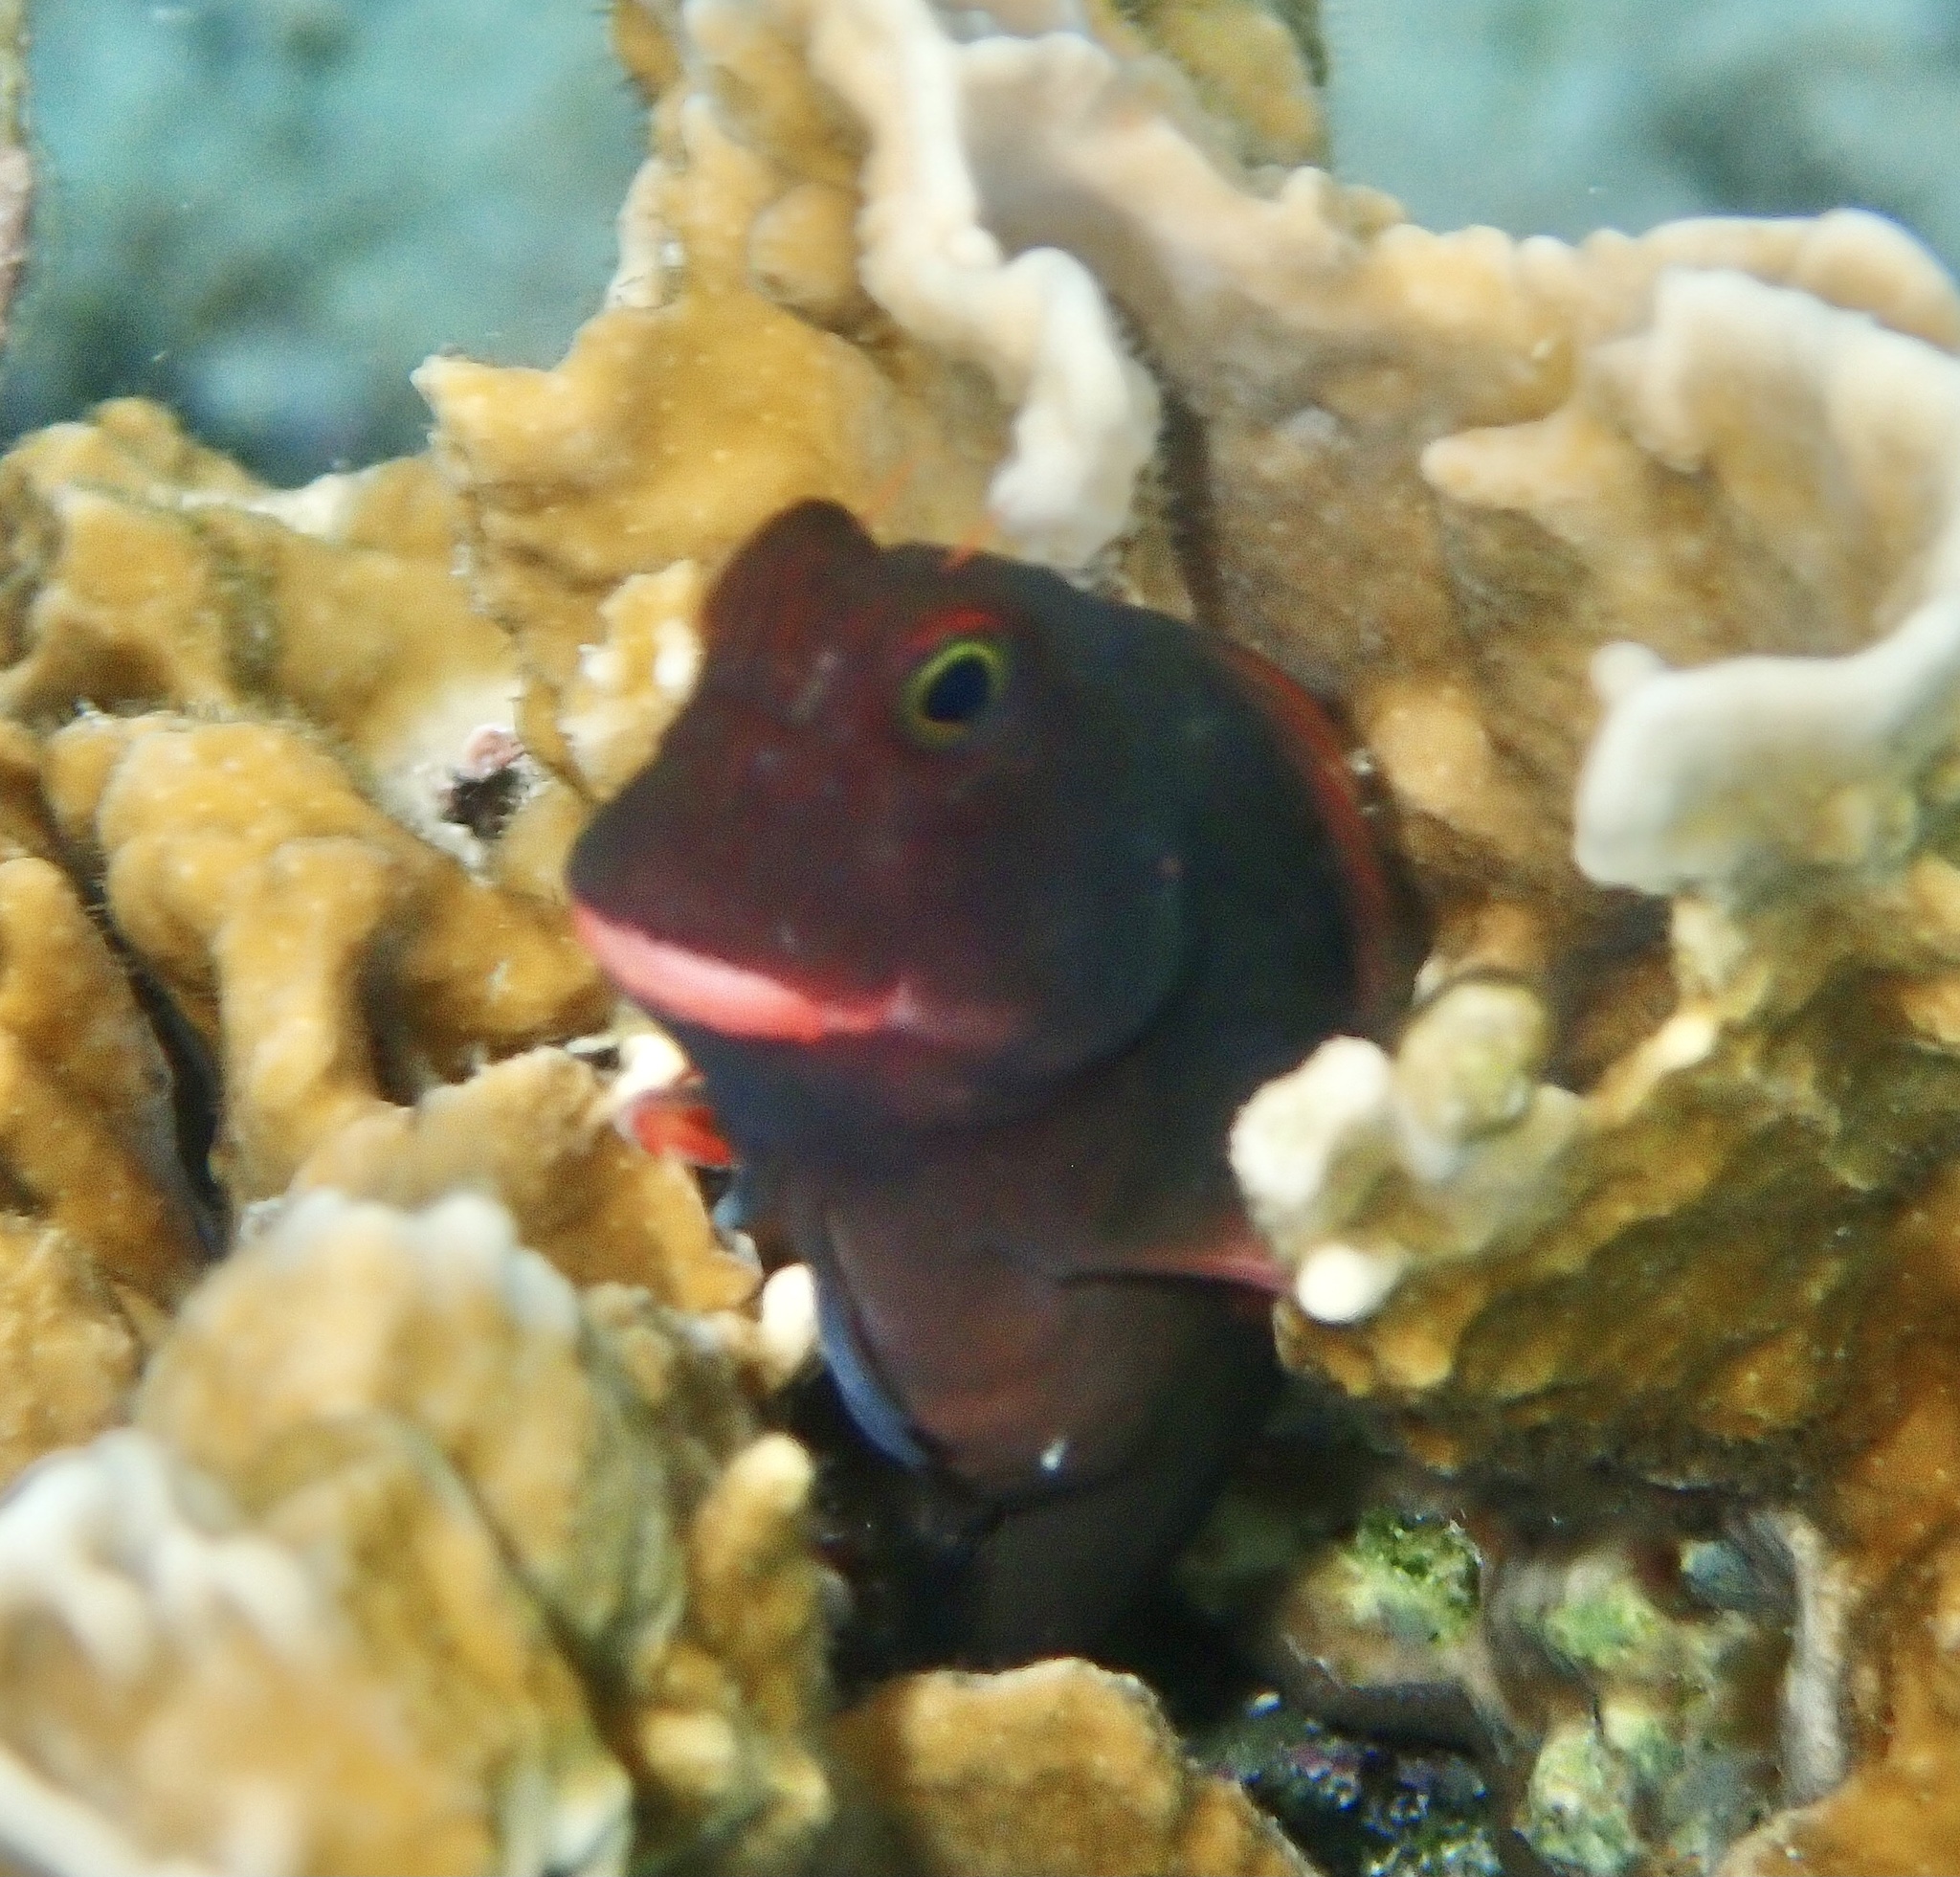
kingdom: Animalia
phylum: Chordata
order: Perciformes
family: Blenniidae
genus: Ophioblennius
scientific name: Ophioblennius macclurei
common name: Redlip blenny
